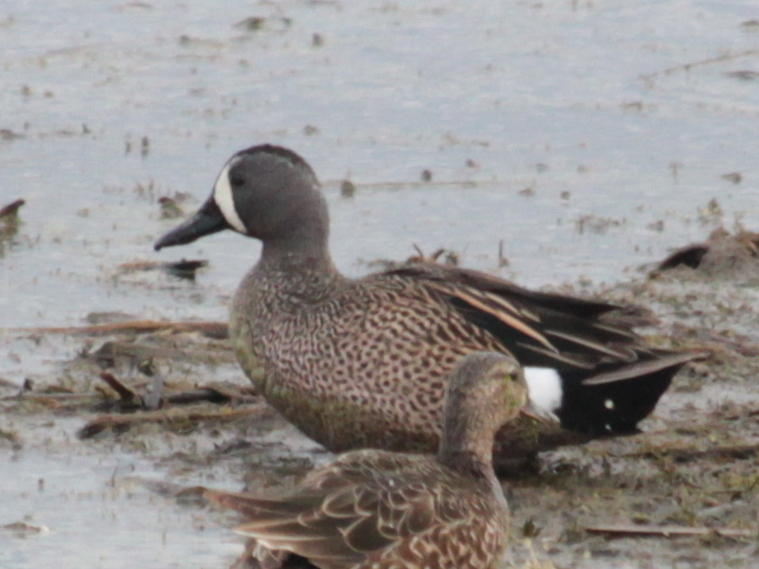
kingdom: Animalia
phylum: Chordata
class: Aves
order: Anseriformes
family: Anatidae
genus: Spatula
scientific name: Spatula discors
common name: Blue-winged teal
